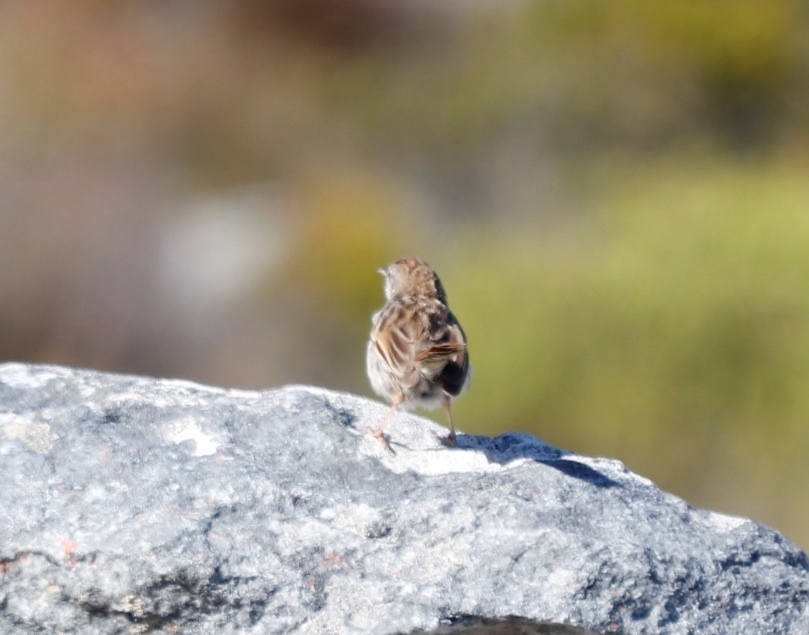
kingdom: Animalia
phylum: Chordata
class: Aves
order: Passeriformes
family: Cisticolidae
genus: Cisticola
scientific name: Cisticola subruficapilla
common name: Grey-backed cisticola
